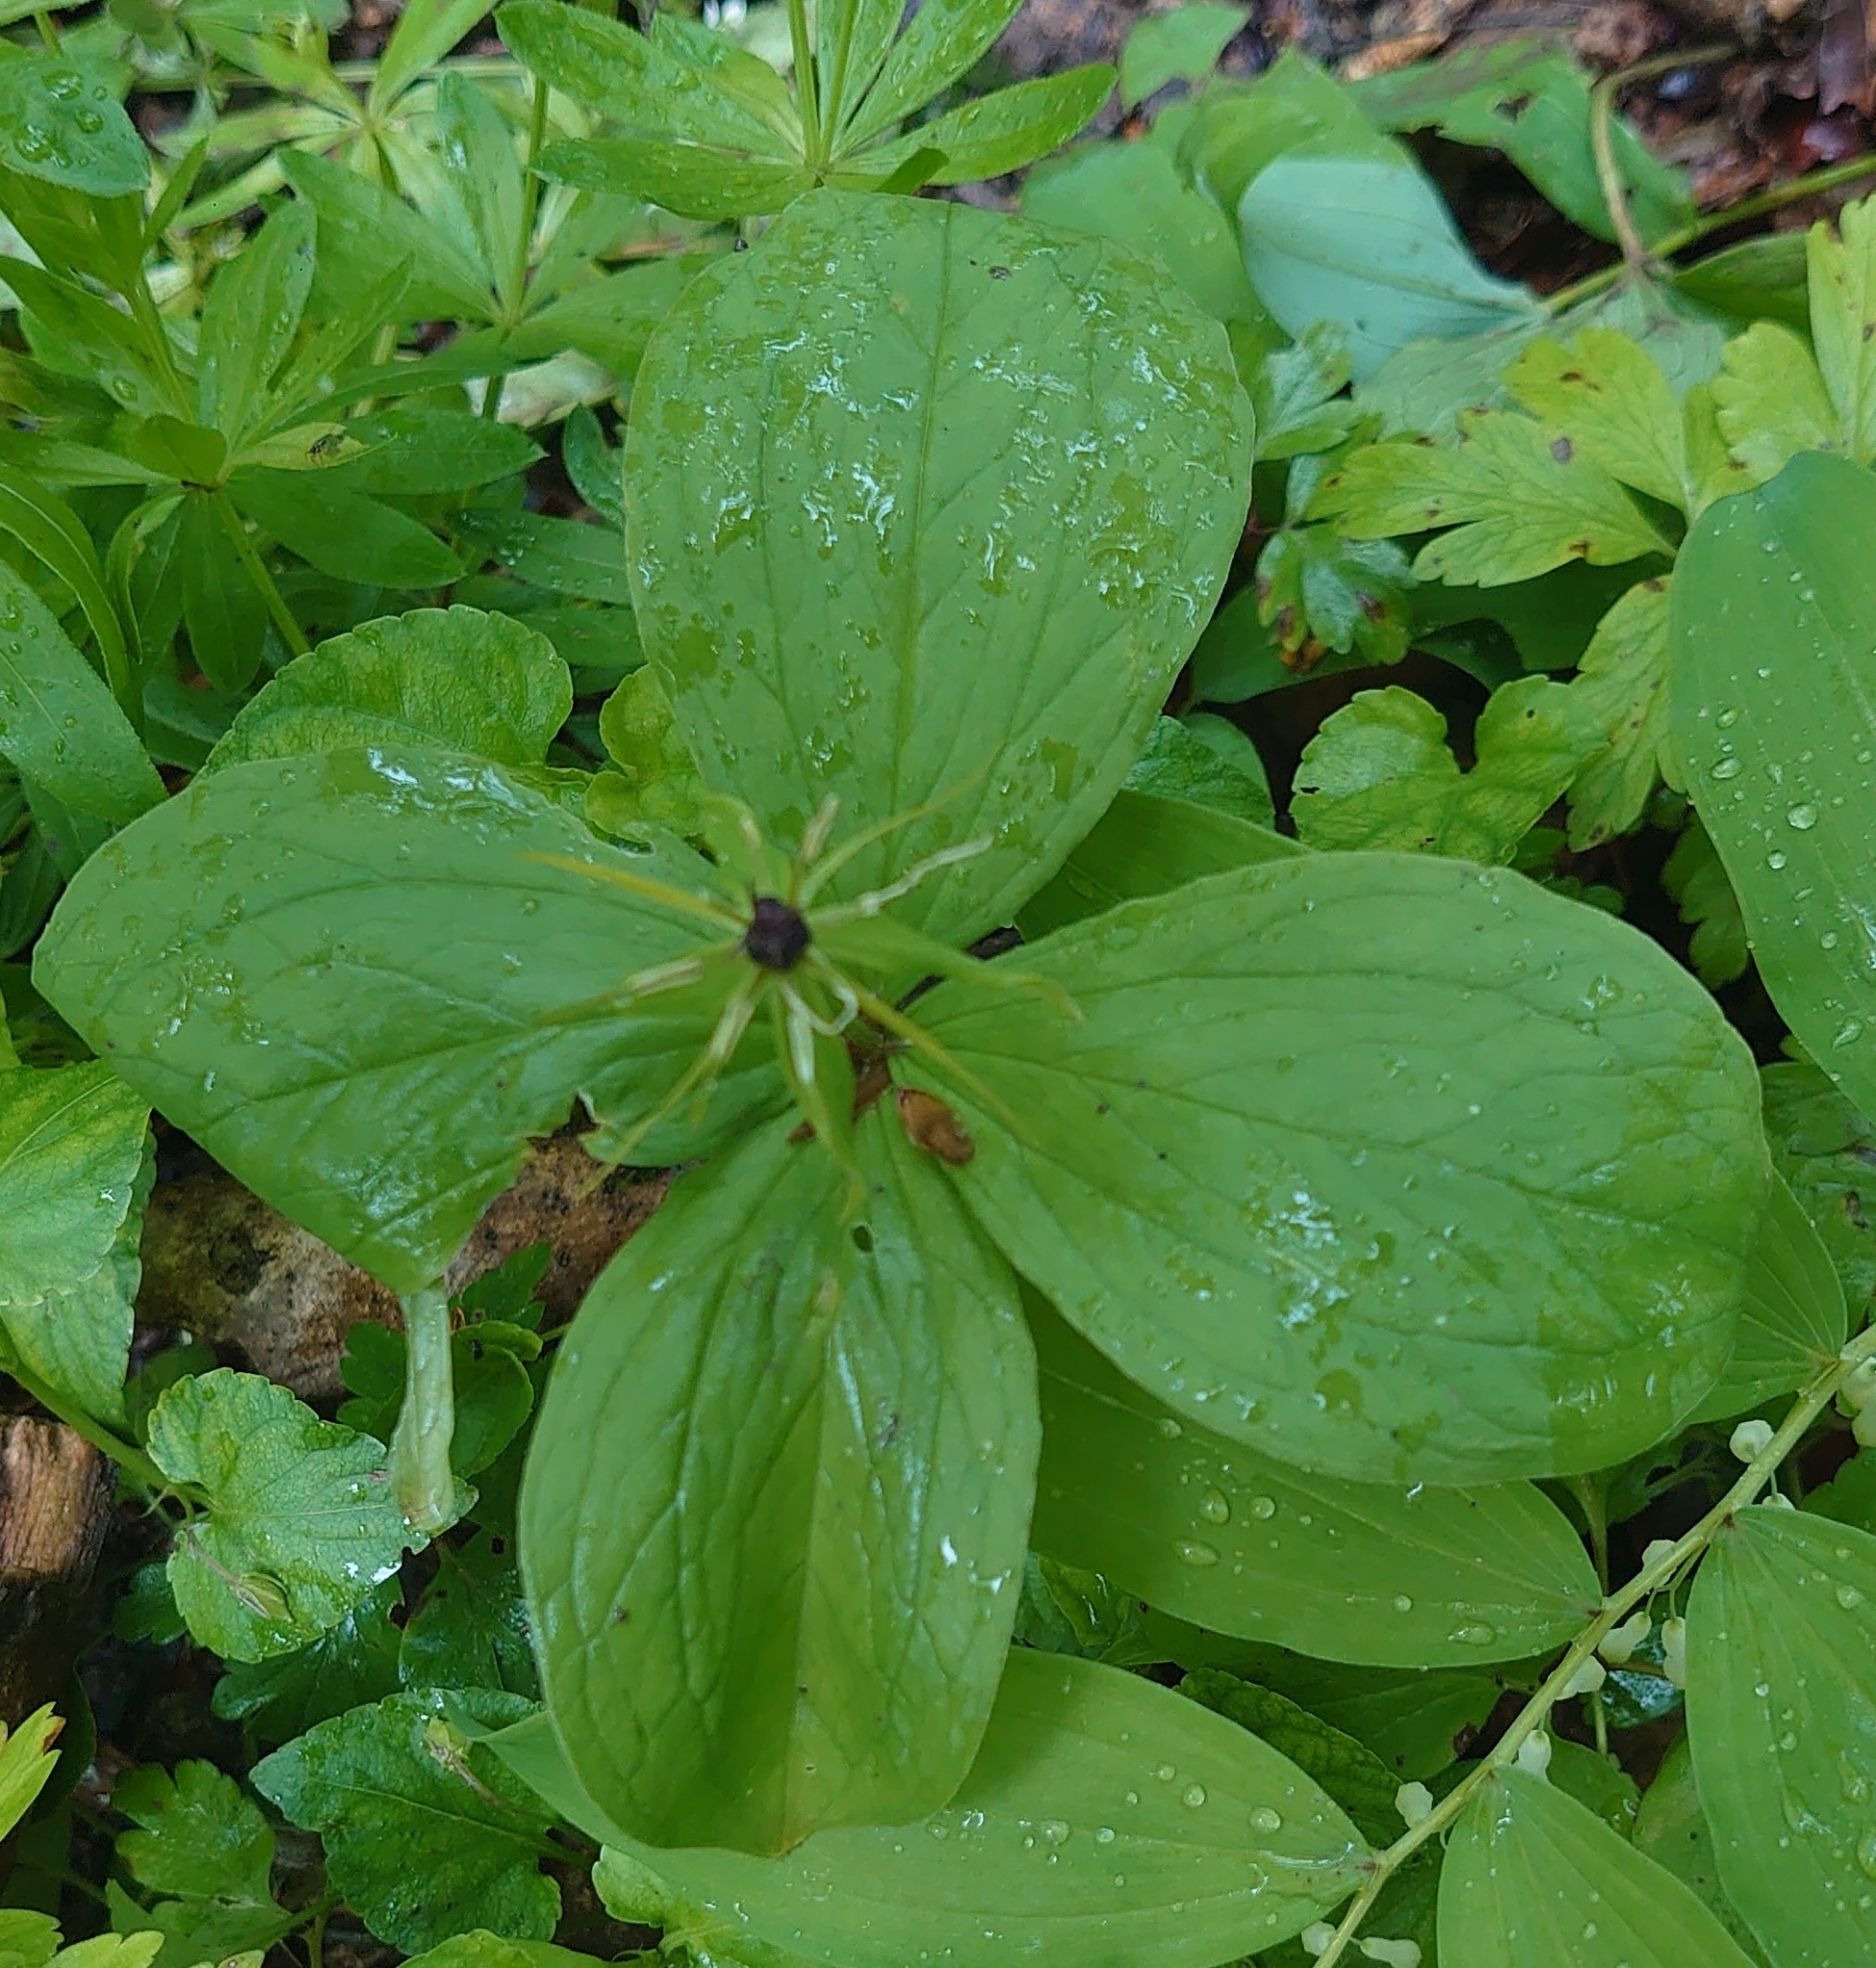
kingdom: Plantae
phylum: Tracheophyta
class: Liliopsida
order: Liliales
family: Melanthiaceae
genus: Paris
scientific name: Paris quadrifolia
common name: Herb-paris
